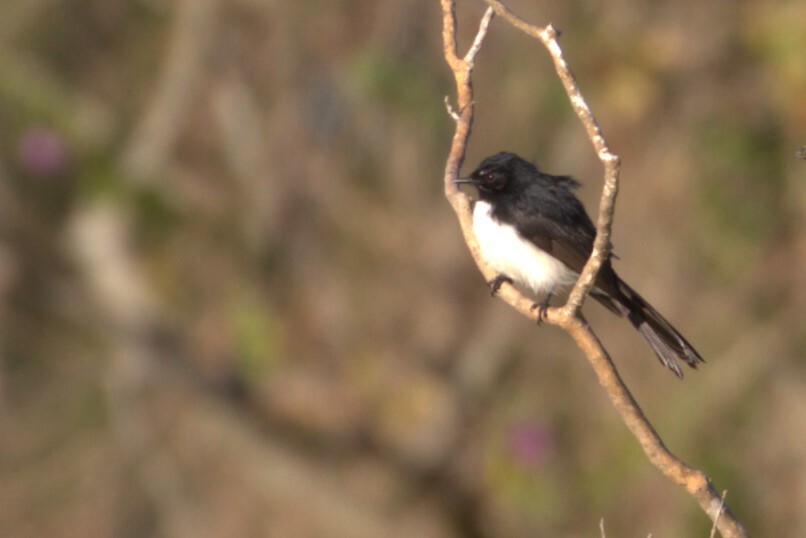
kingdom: Animalia
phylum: Chordata
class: Aves
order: Passeriformes
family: Rhipiduridae
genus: Rhipidura
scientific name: Rhipidura leucophrys
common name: Willie wagtail
